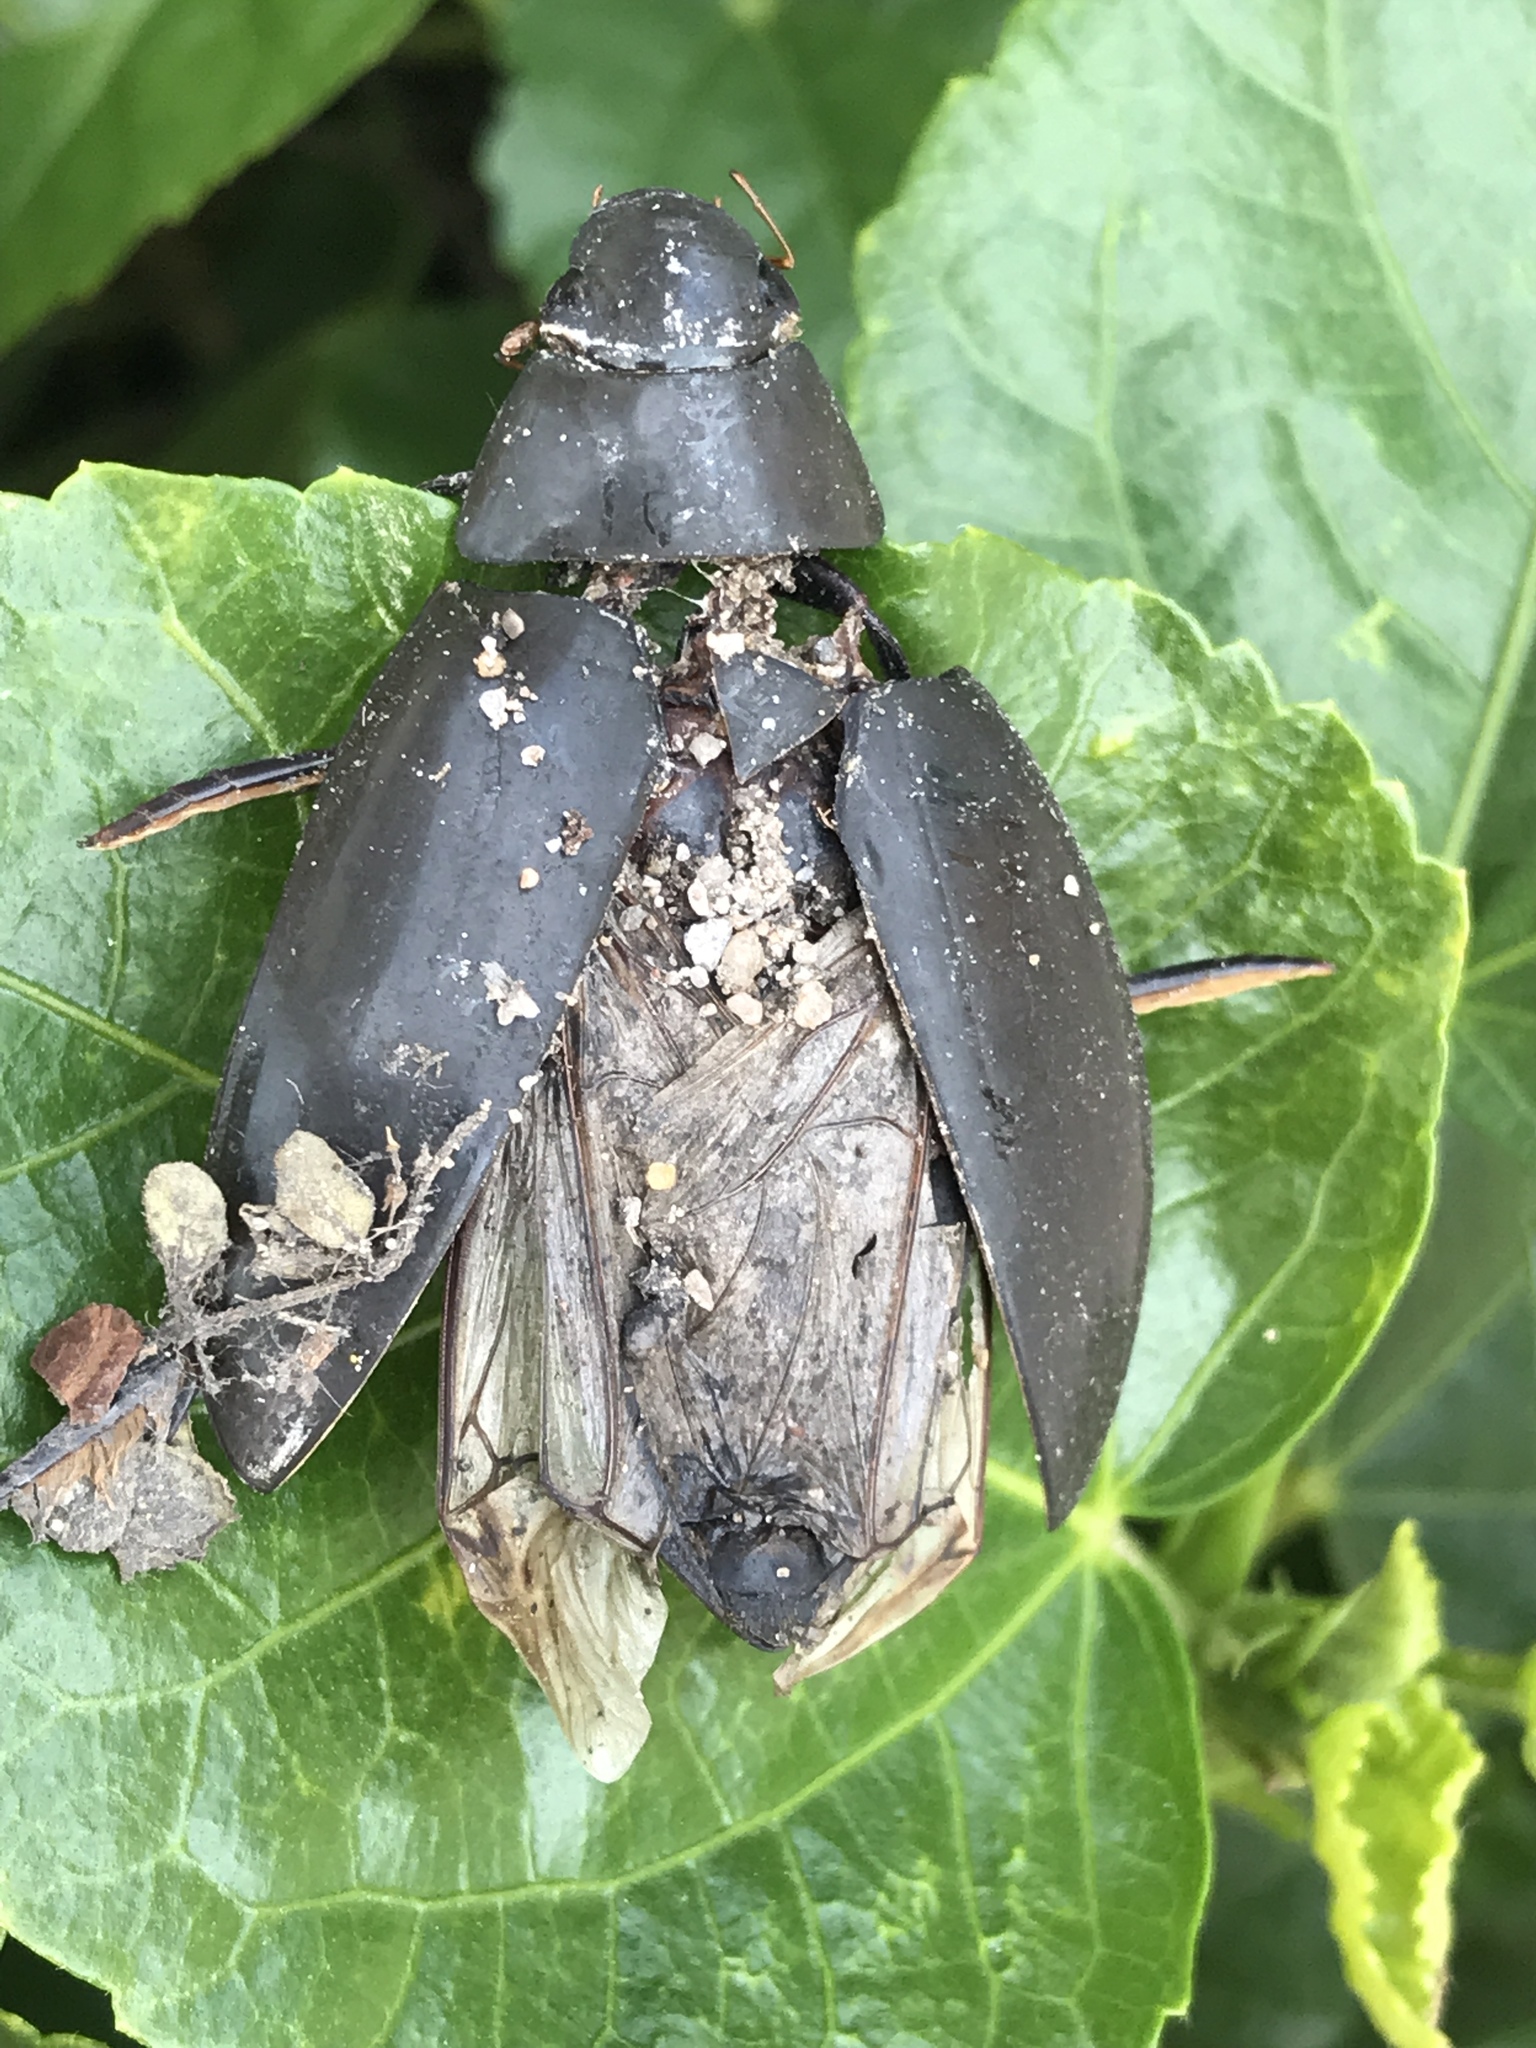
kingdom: Animalia
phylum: Arthropoda
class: Insecta
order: Coleoptera
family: Hydrophilidae
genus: Hydrophilus
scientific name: Hydrophilus triangularis
